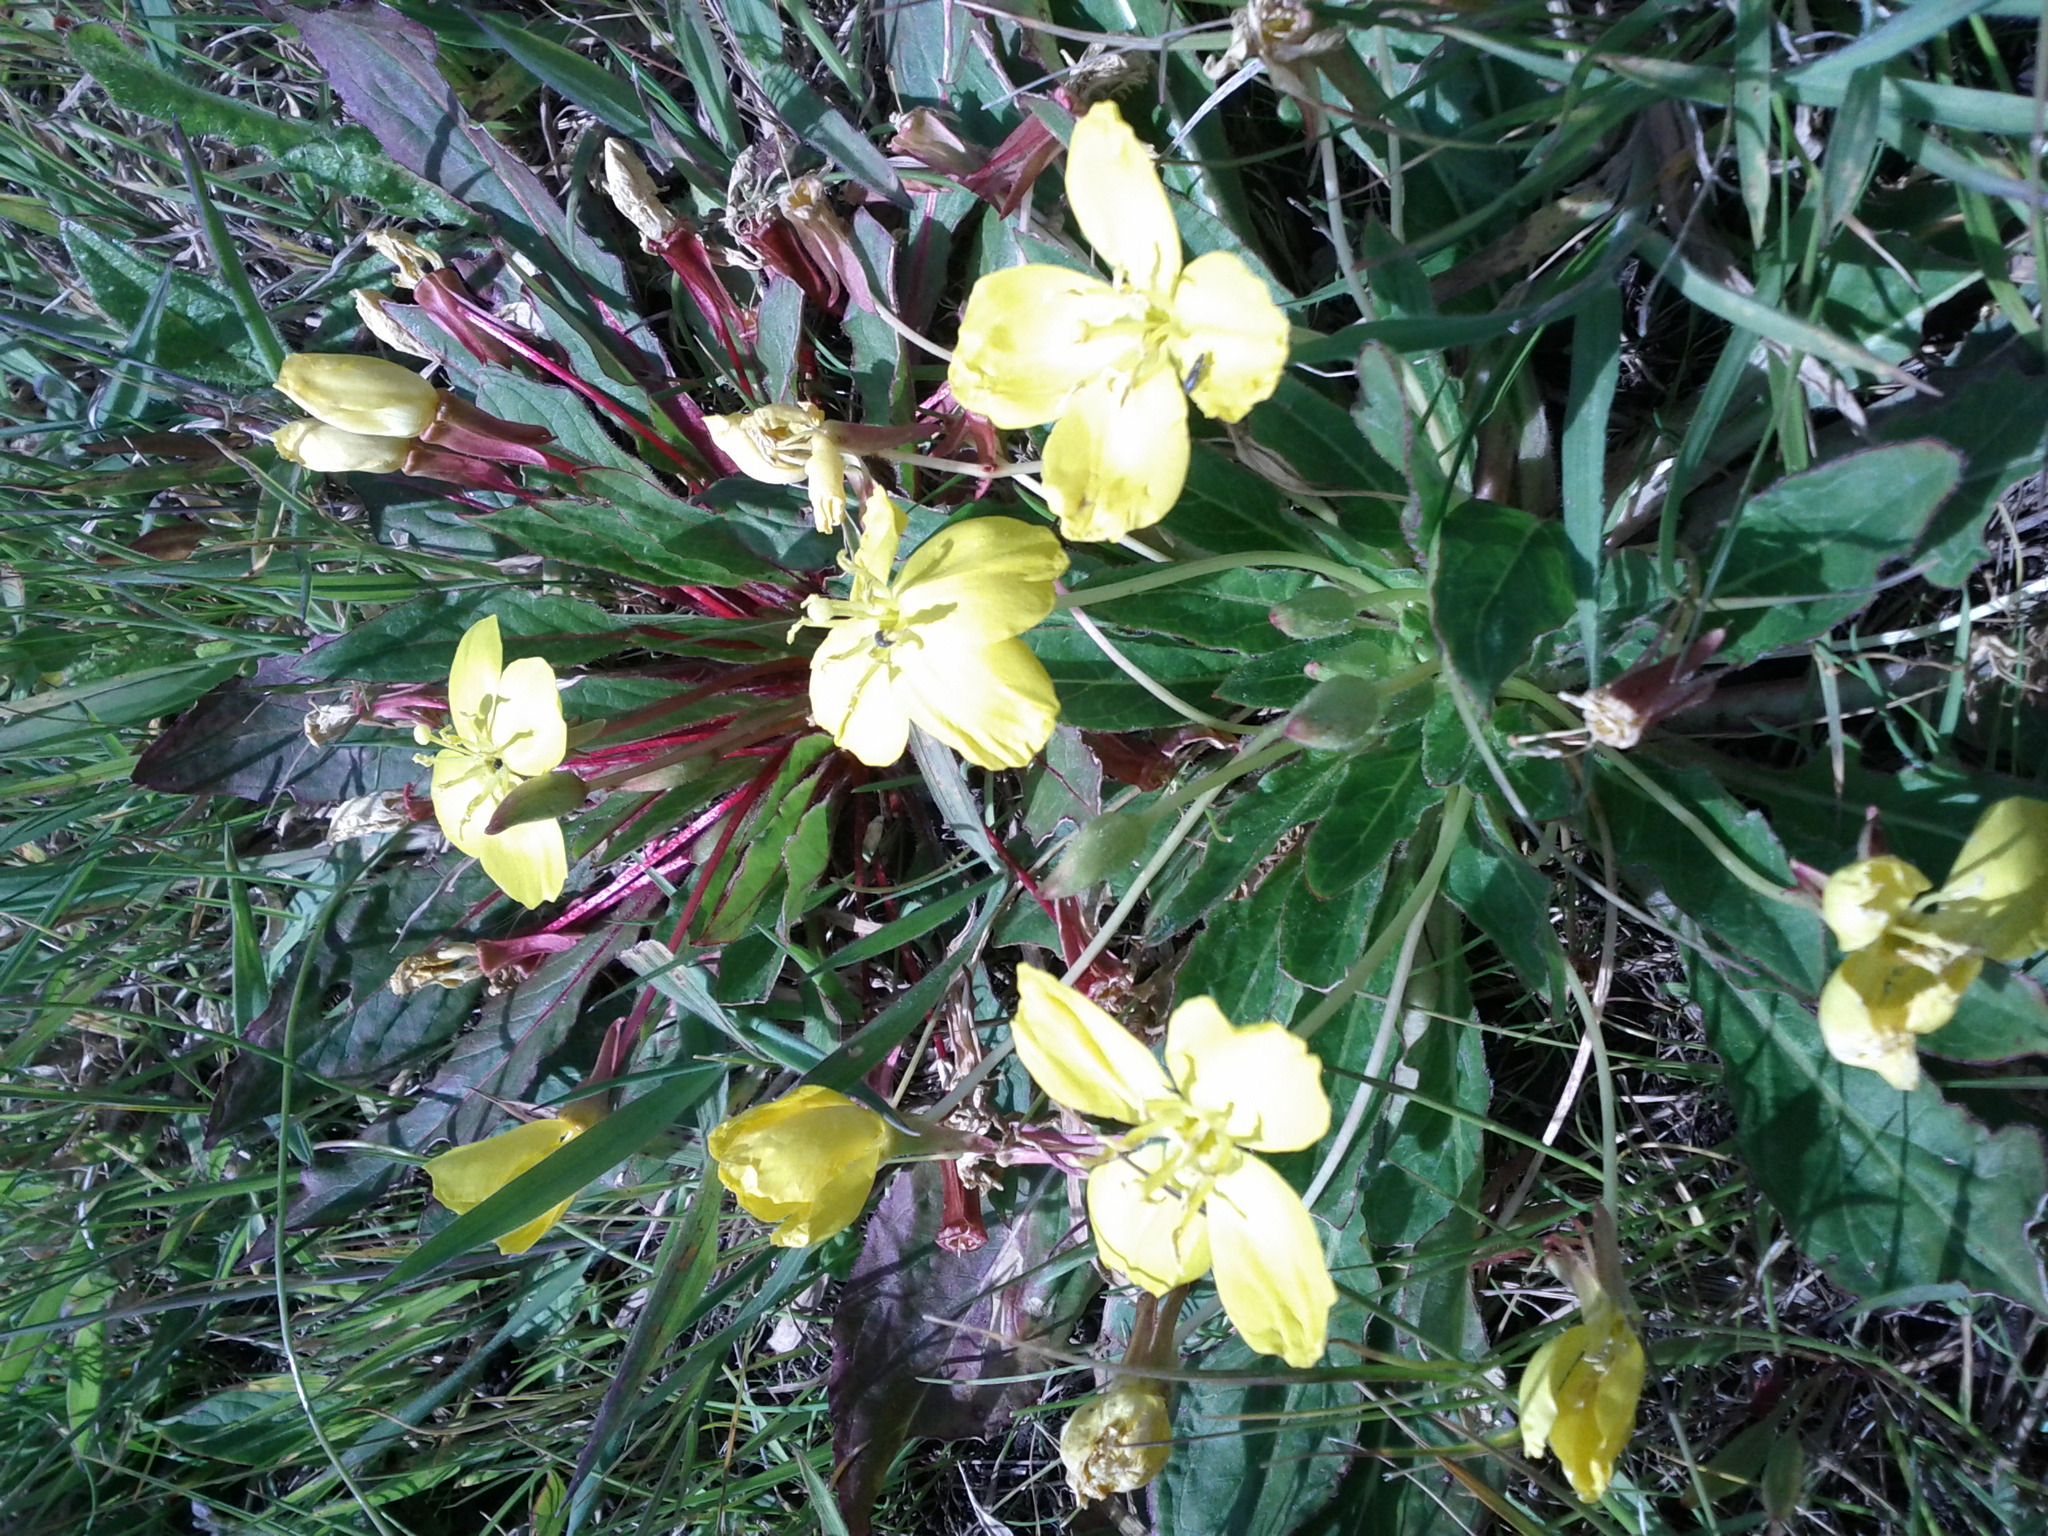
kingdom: Plantae
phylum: Tracheophyta
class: Magnoliopsida
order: Myrtales
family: Onagraceae
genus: Taraxia
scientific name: Taraxia ovata
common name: Goldeneggs
